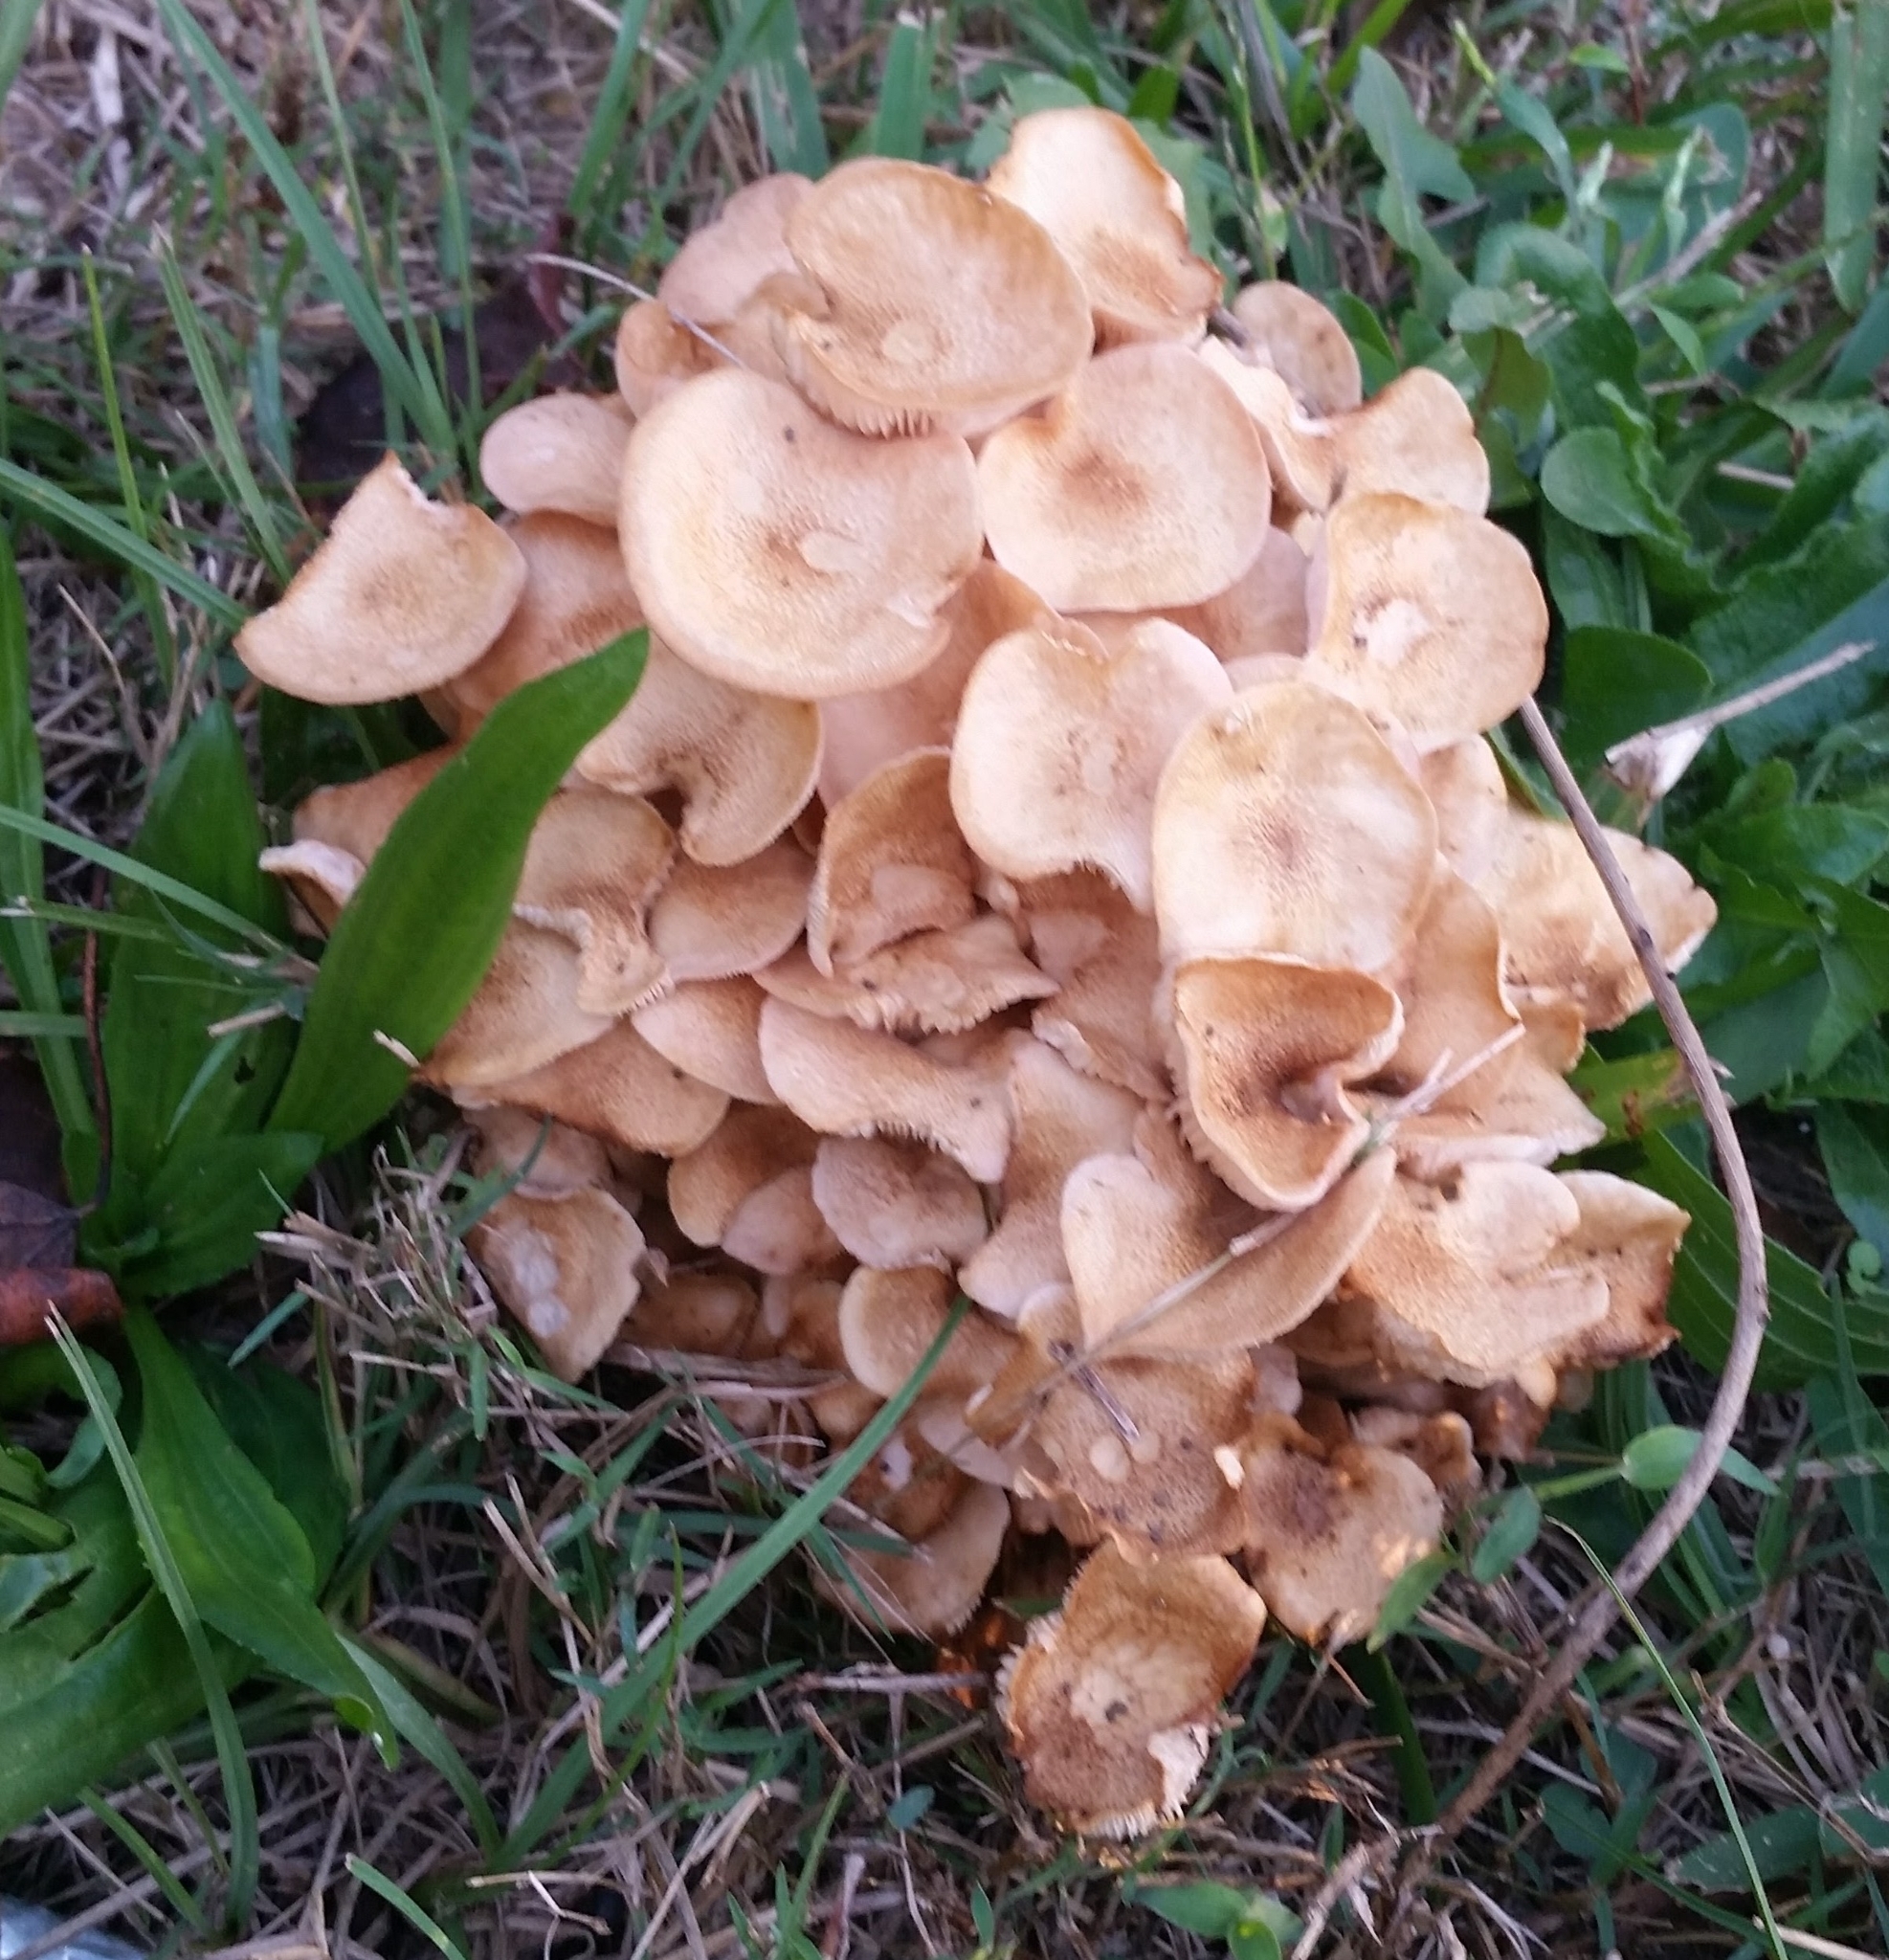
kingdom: Fungi
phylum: Basidiomycota
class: Agaricomycetes
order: Agaricales
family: Physalacriaceae
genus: Desarmillaria
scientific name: Desarmillaria caespitosa
